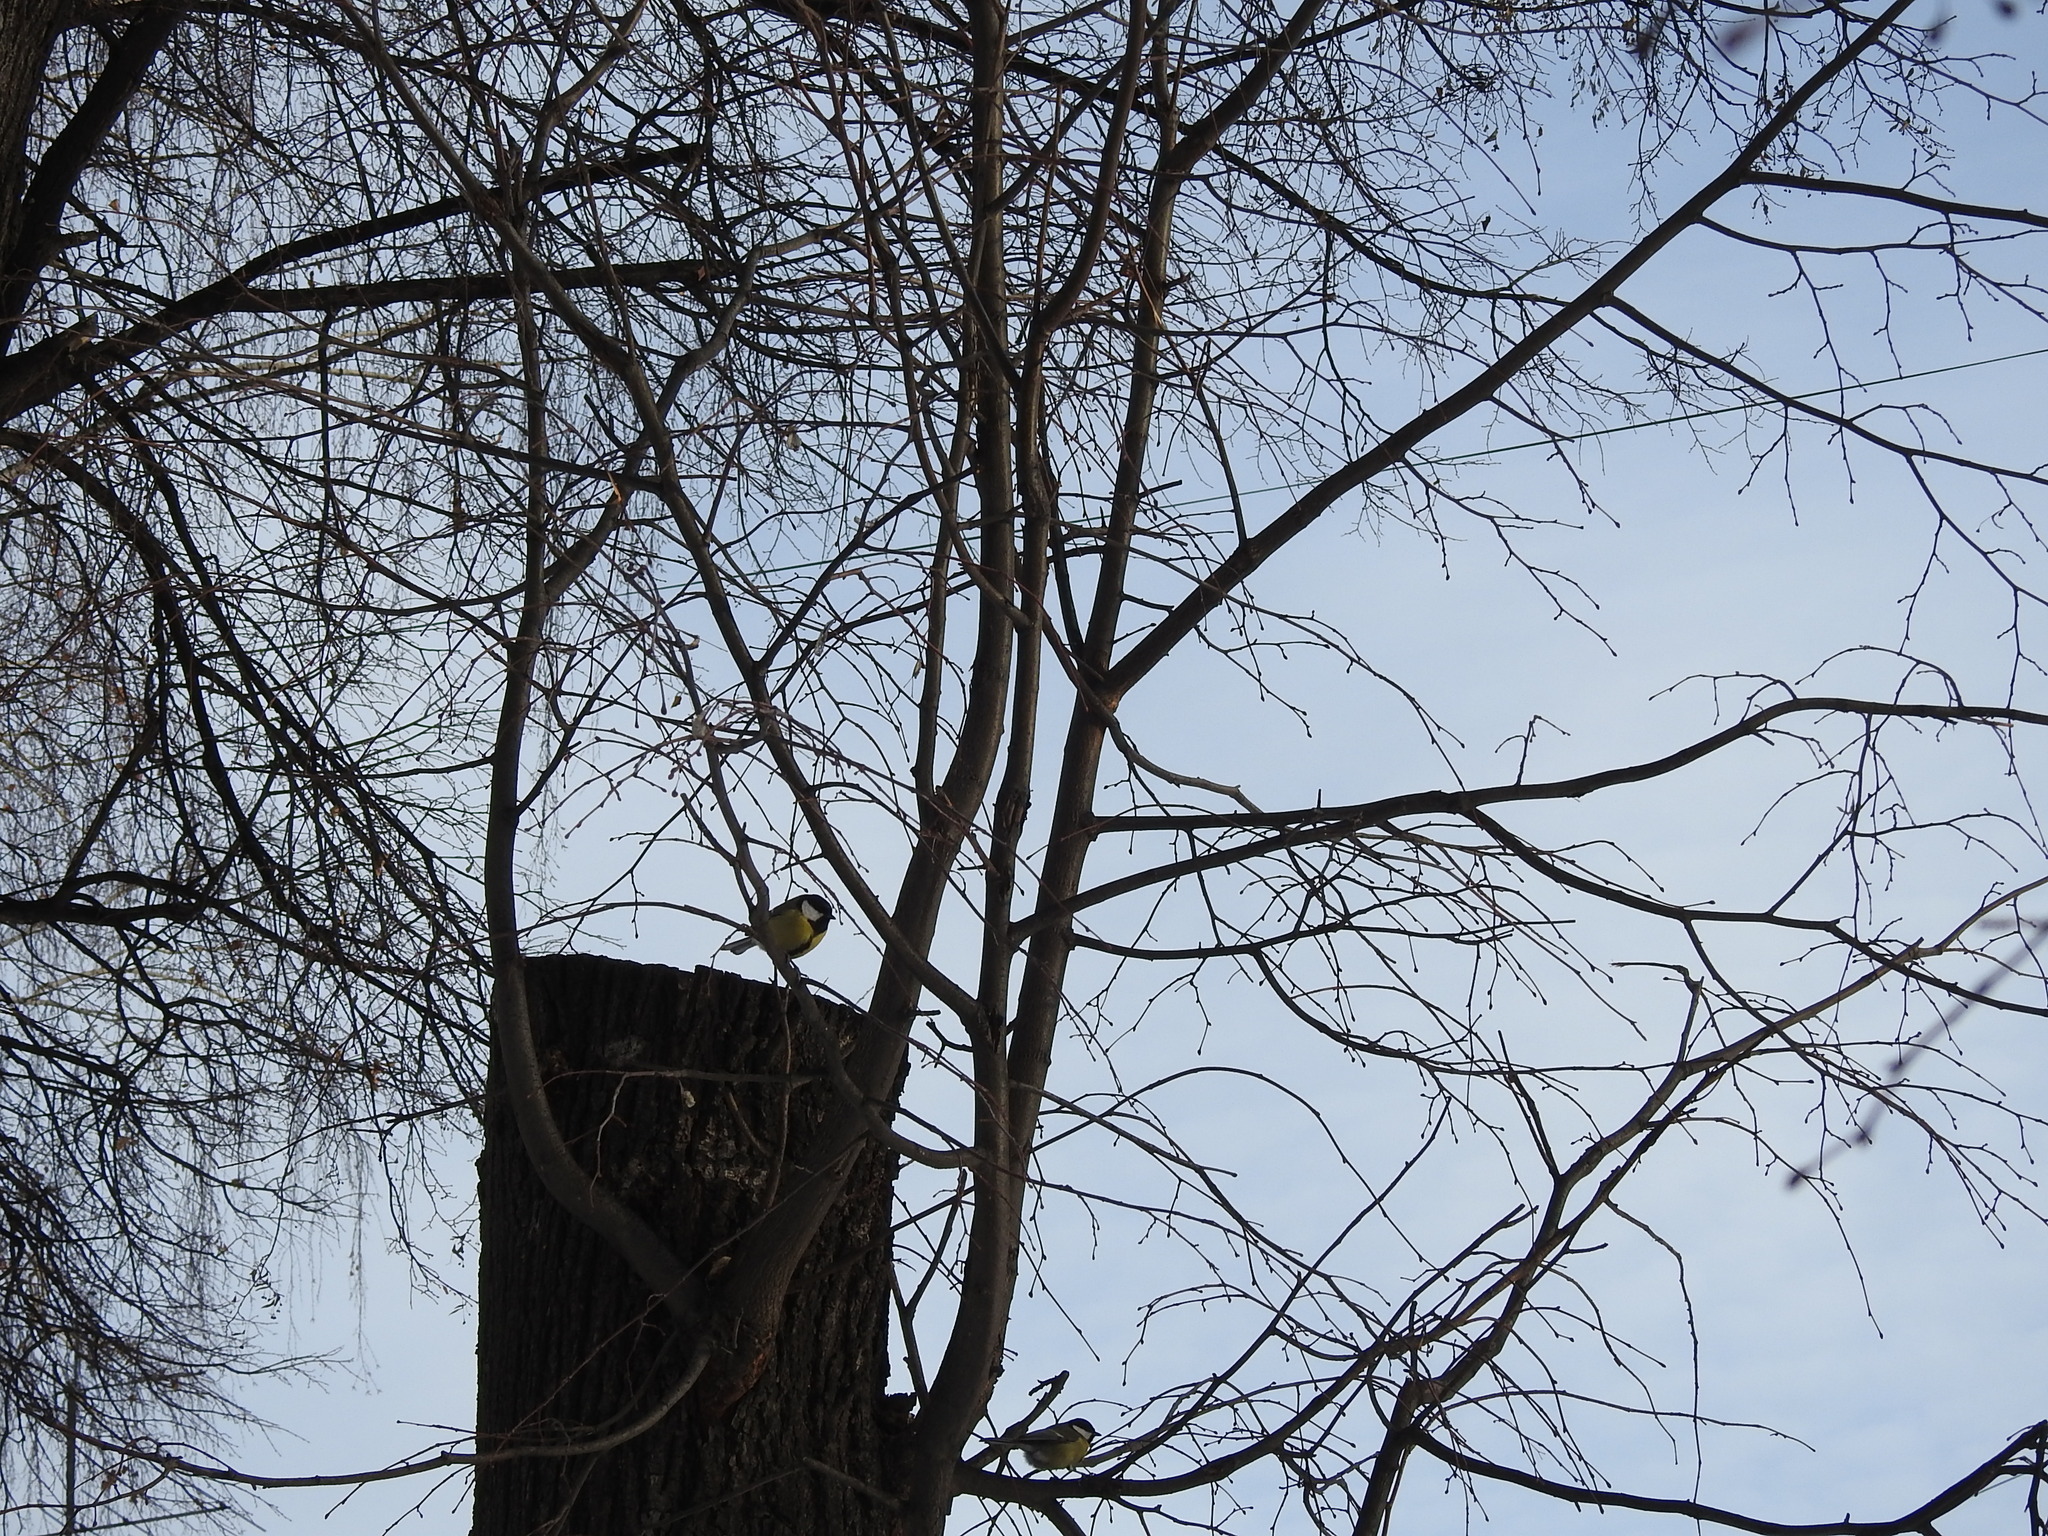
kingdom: Animalia
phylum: Chordata
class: Aves
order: Passeriformes
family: Paridae
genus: Parus
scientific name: Parus major
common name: Great tit
